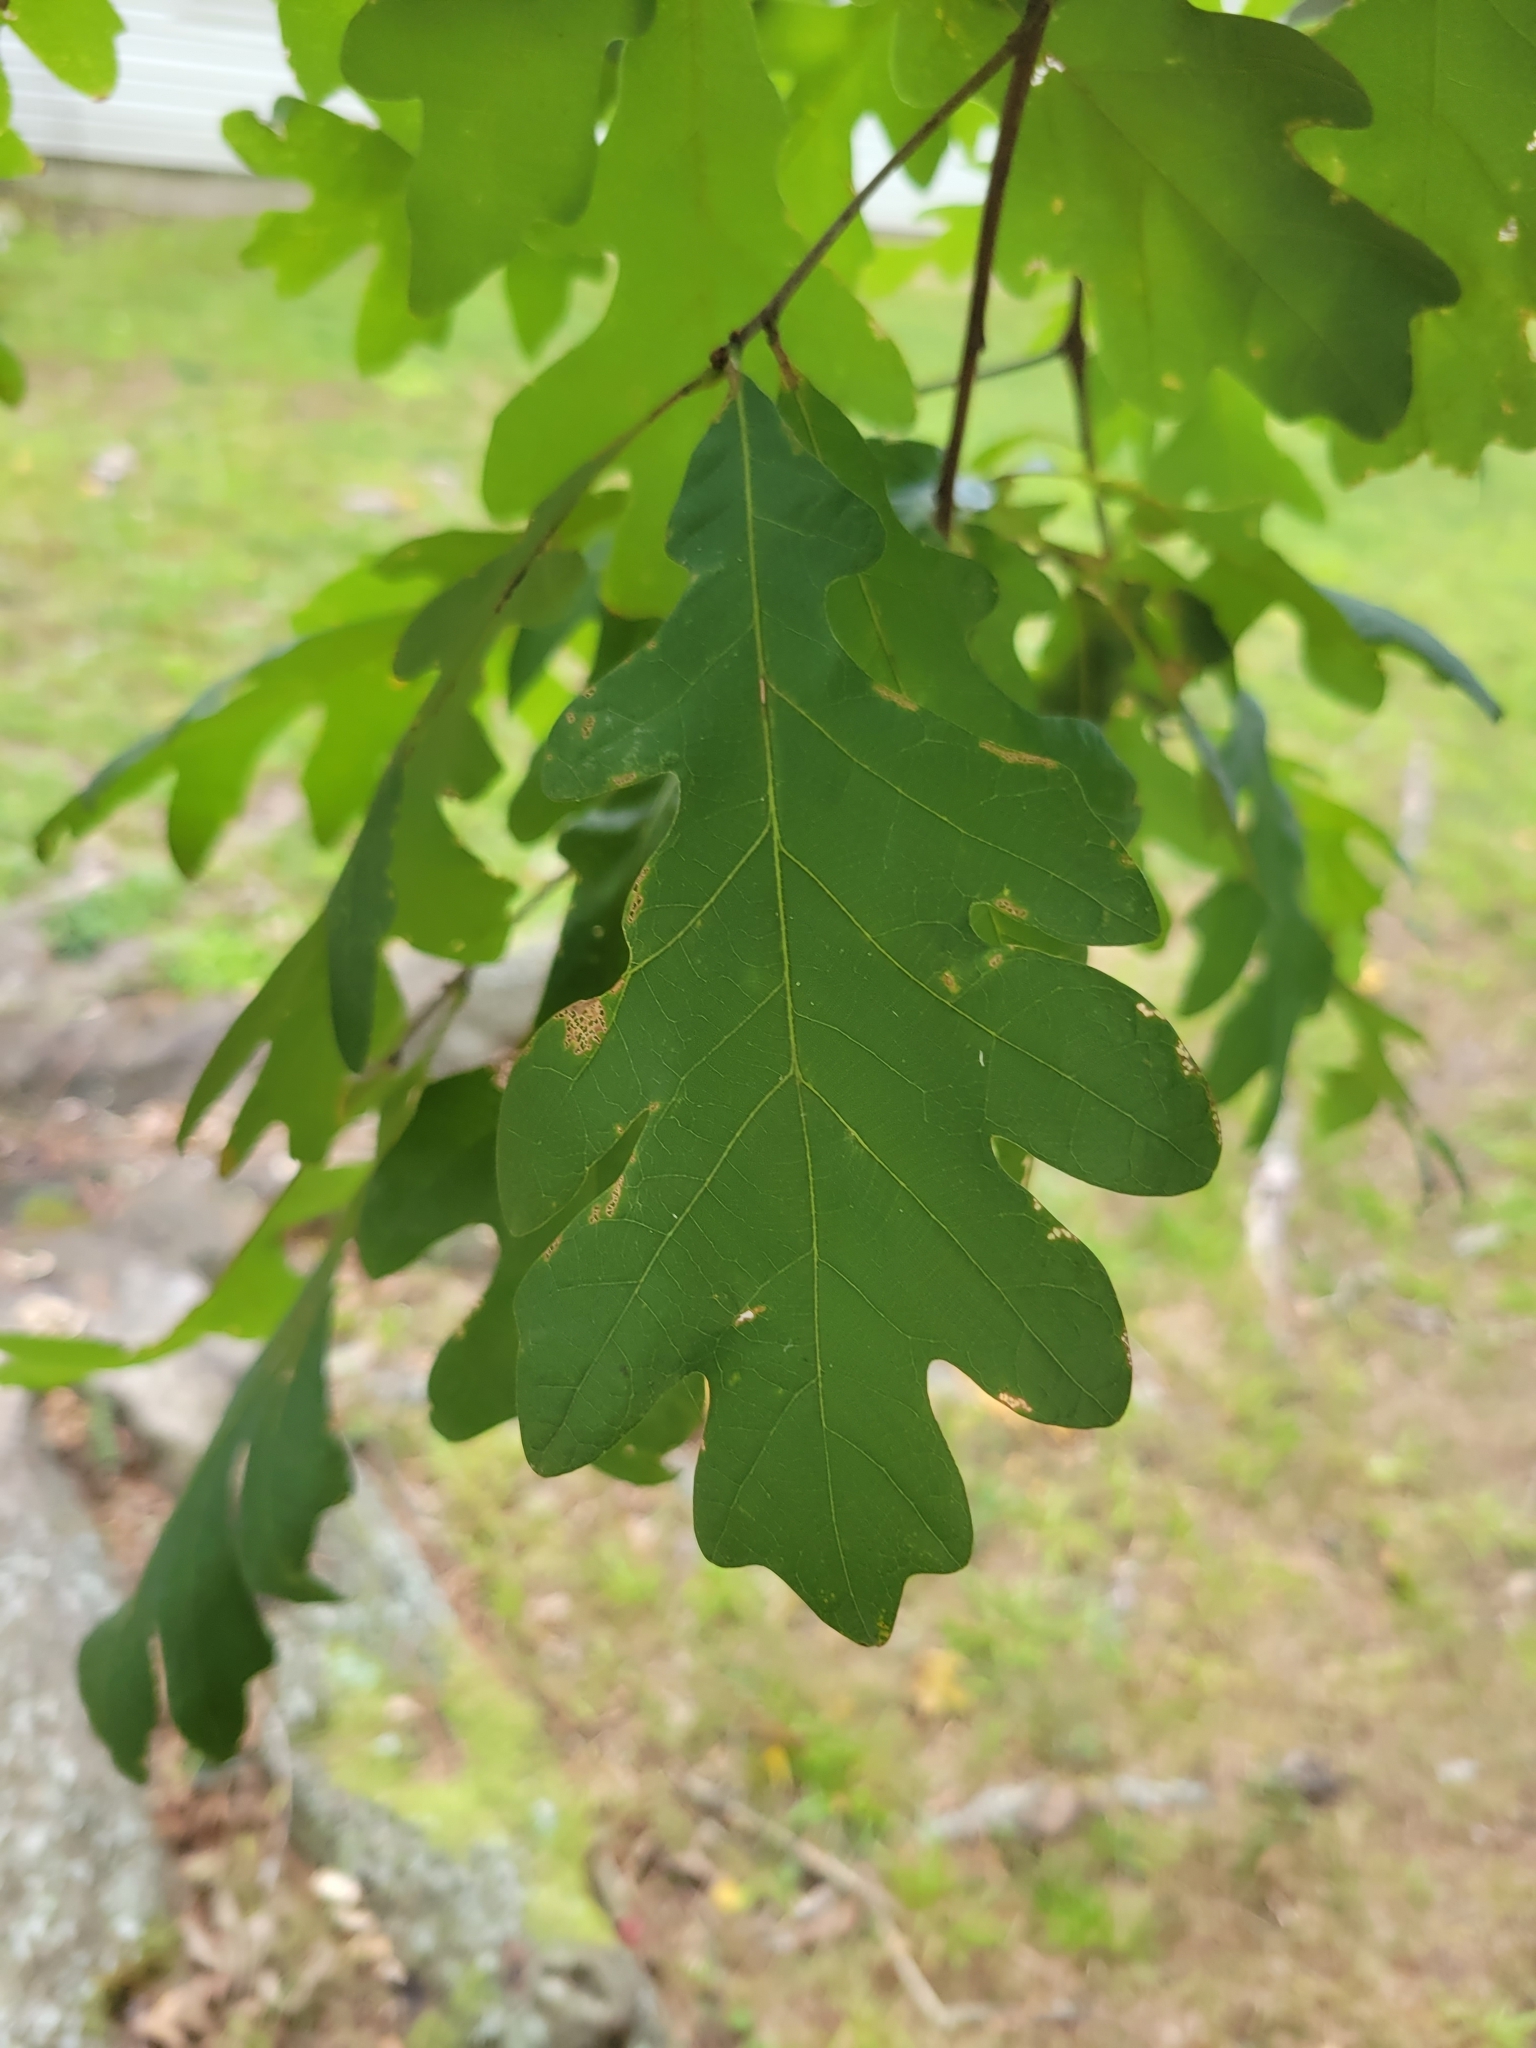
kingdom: Plantae
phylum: Tracheophyta
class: Magnoliopsida
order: Fagales
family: Fagaceae
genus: Quercus
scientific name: Quercus alba
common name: White oak
